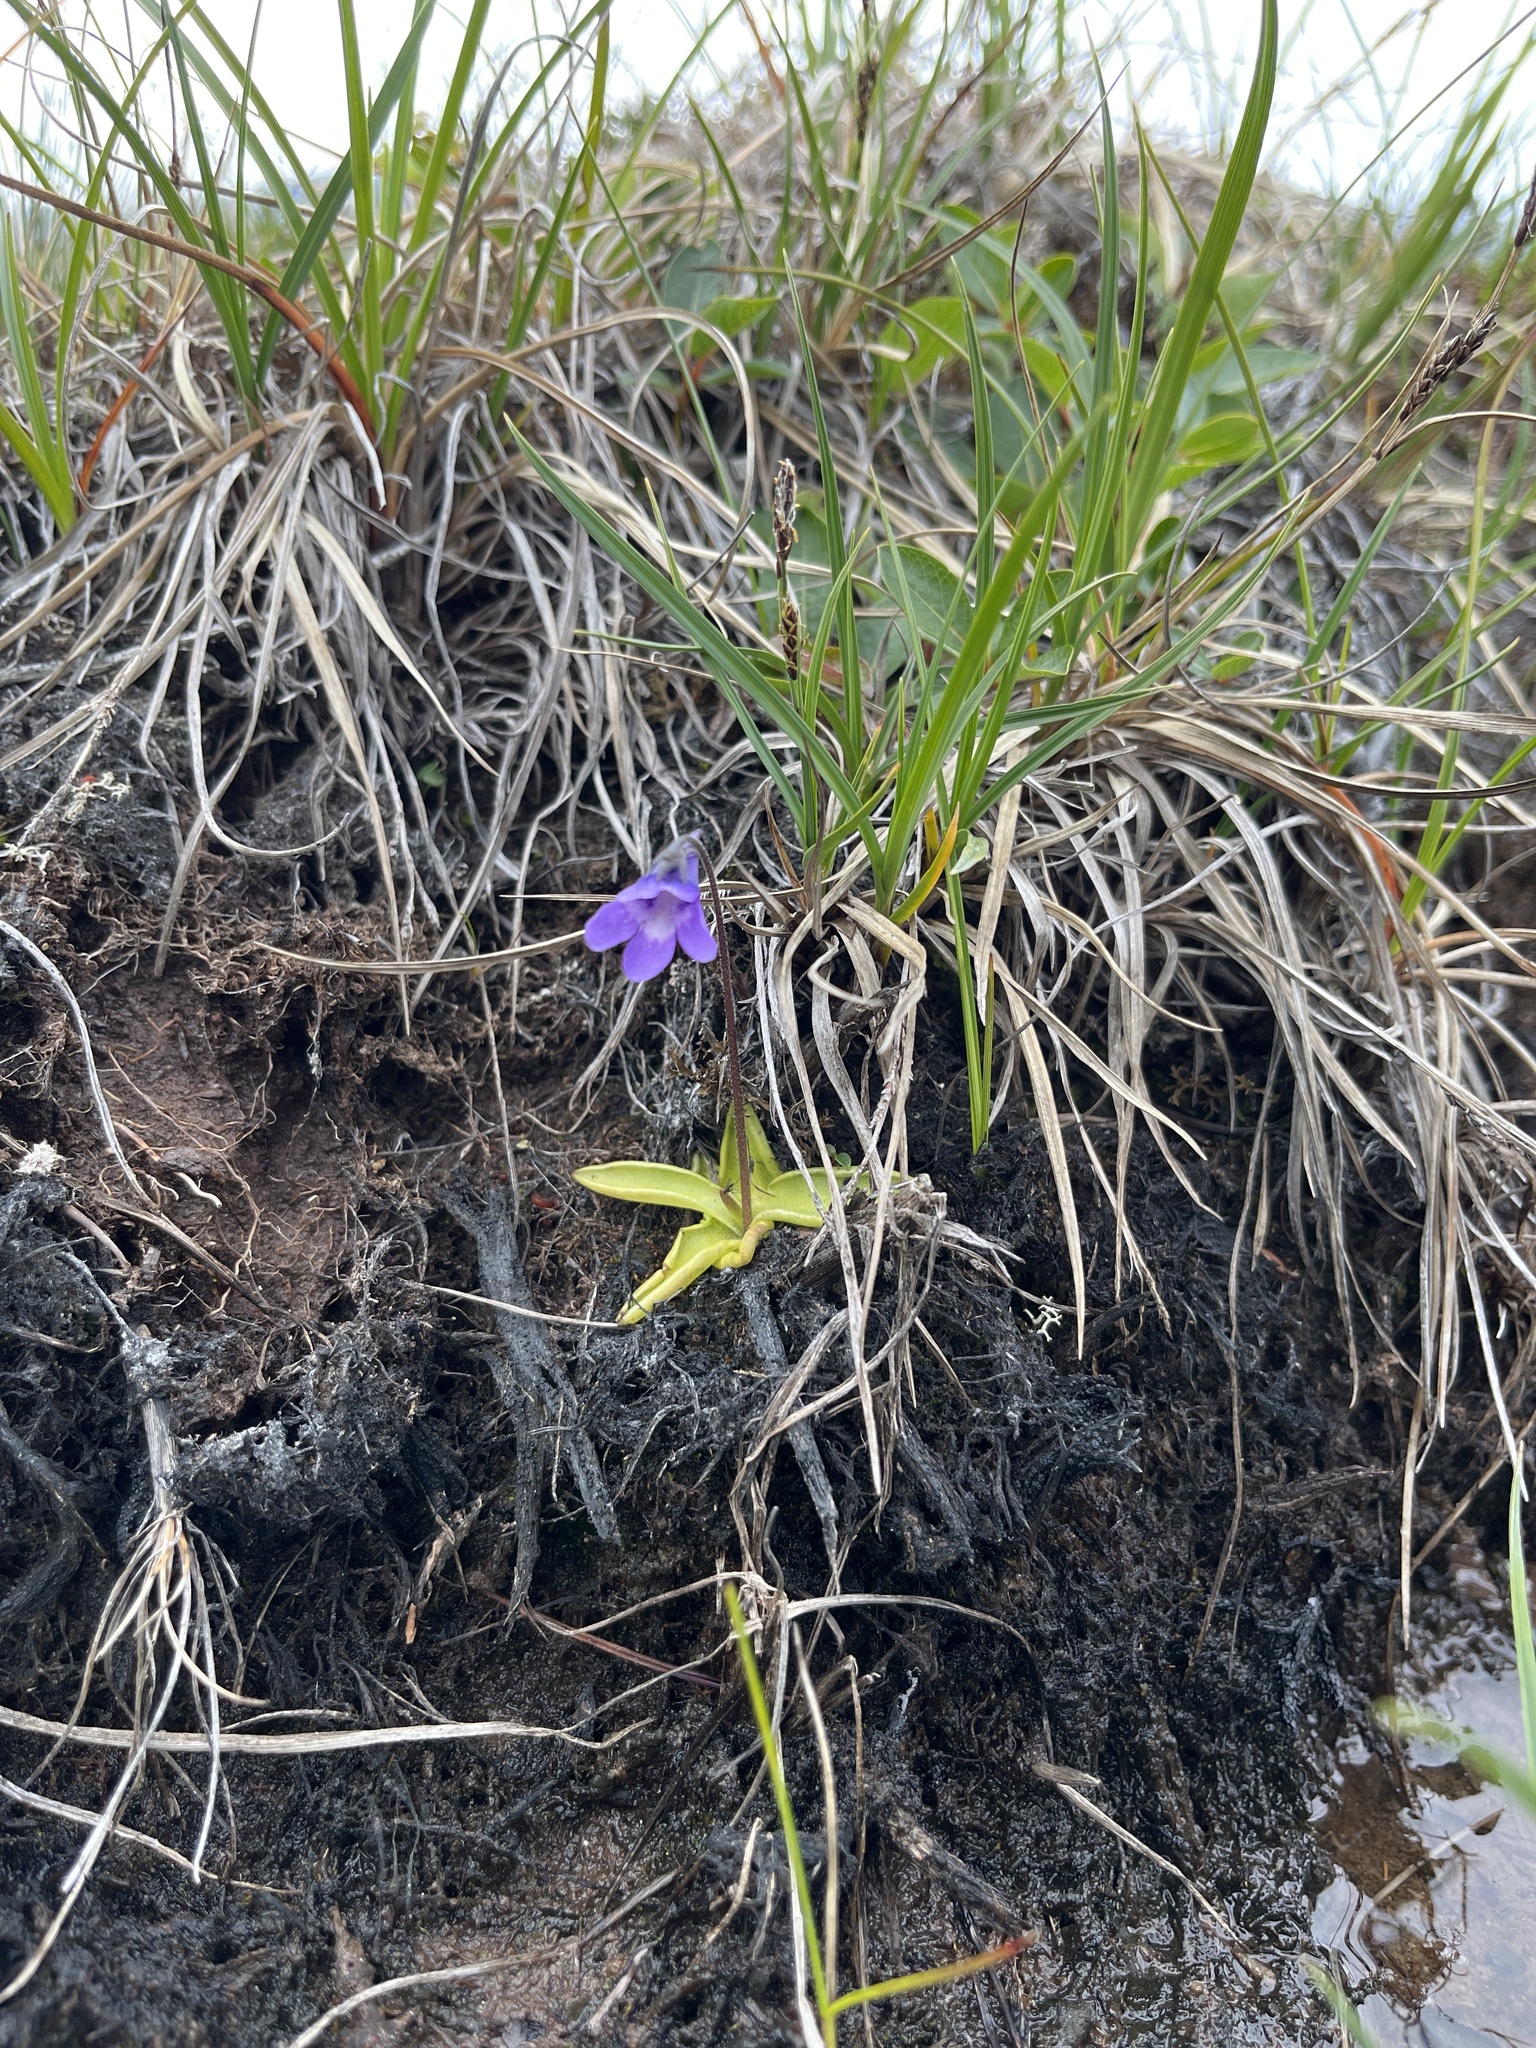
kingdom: Plantae
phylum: Tracheophyta
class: Magnoliopsida
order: Lamiales
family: Lentibulariaceae
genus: Pinguicula
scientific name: Pinguicula vulgaris
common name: Common butterwort
